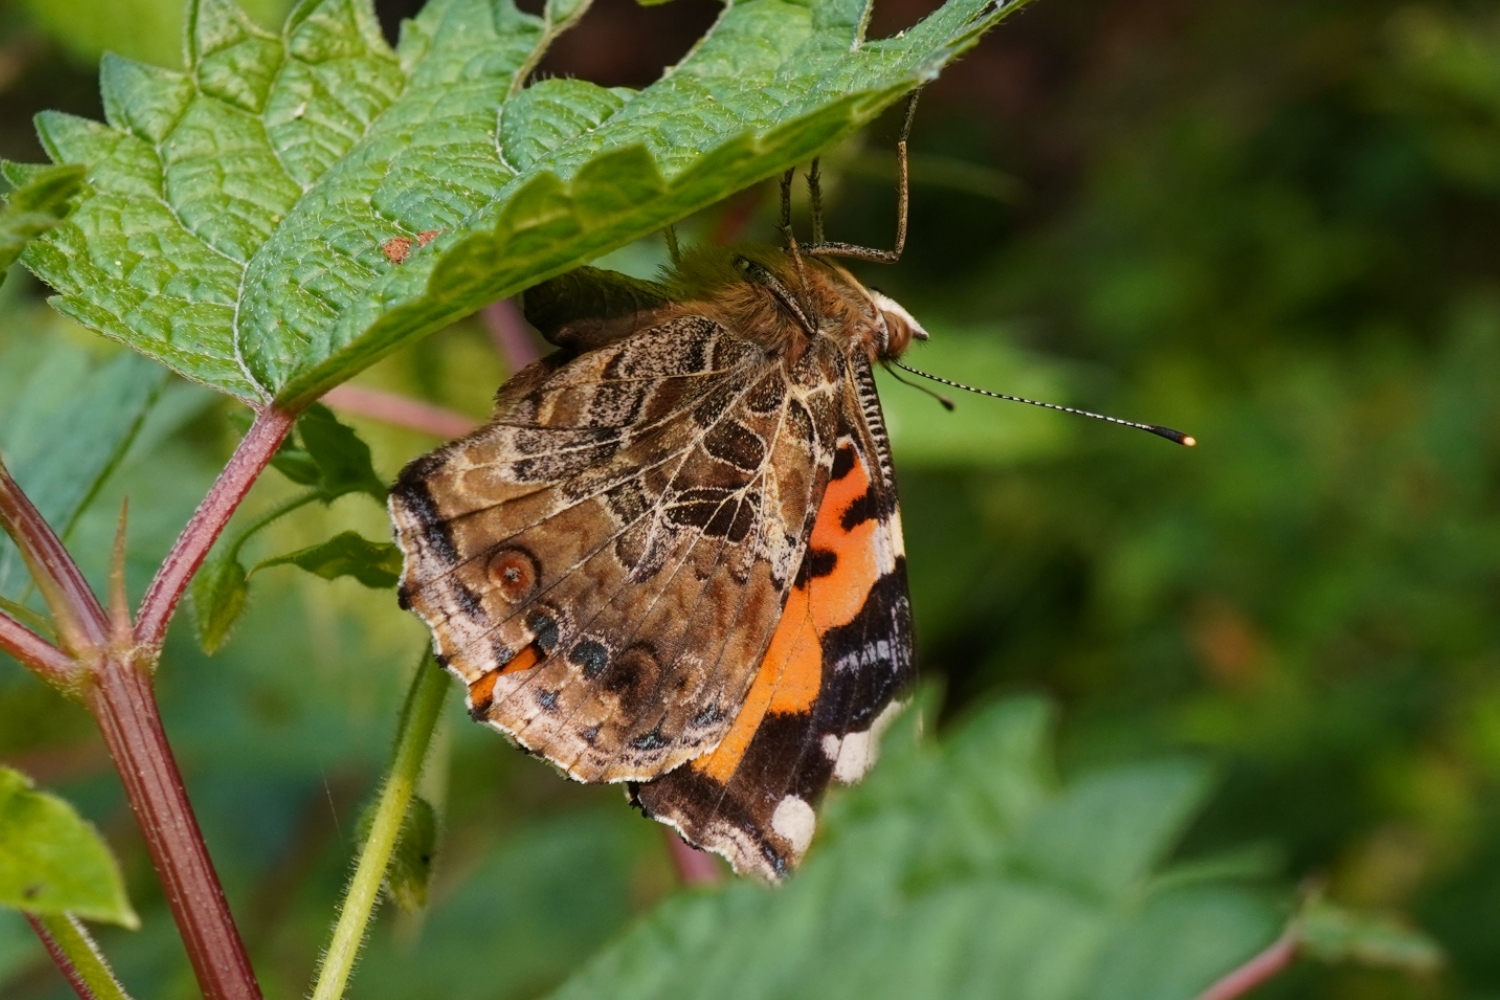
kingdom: Animalia
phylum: Arthropoda
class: Insecta
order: Lepidoptera
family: Nymphalidae
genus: Vanessa
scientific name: Vanessa indica
